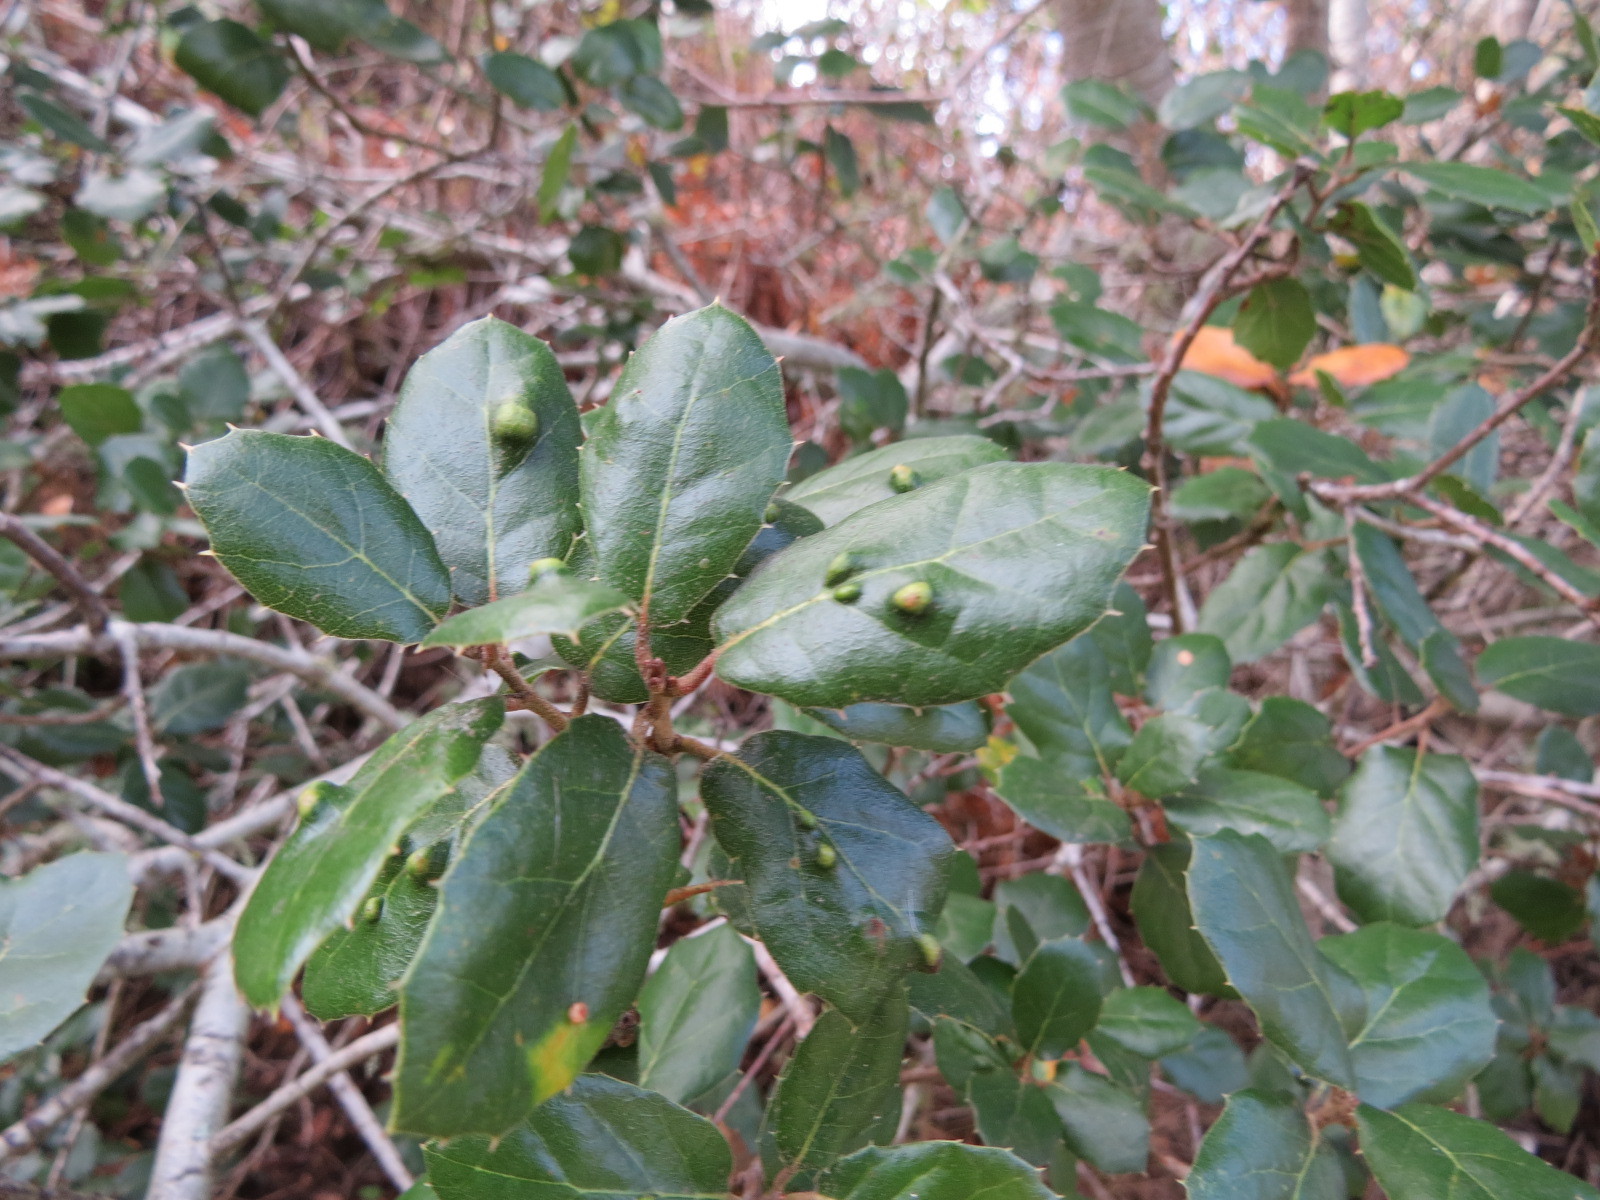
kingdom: Animalia
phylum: Arthropoda
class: Arachnida
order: Trombidiformes
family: Eriophyidae
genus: Aceria
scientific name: Aceria
